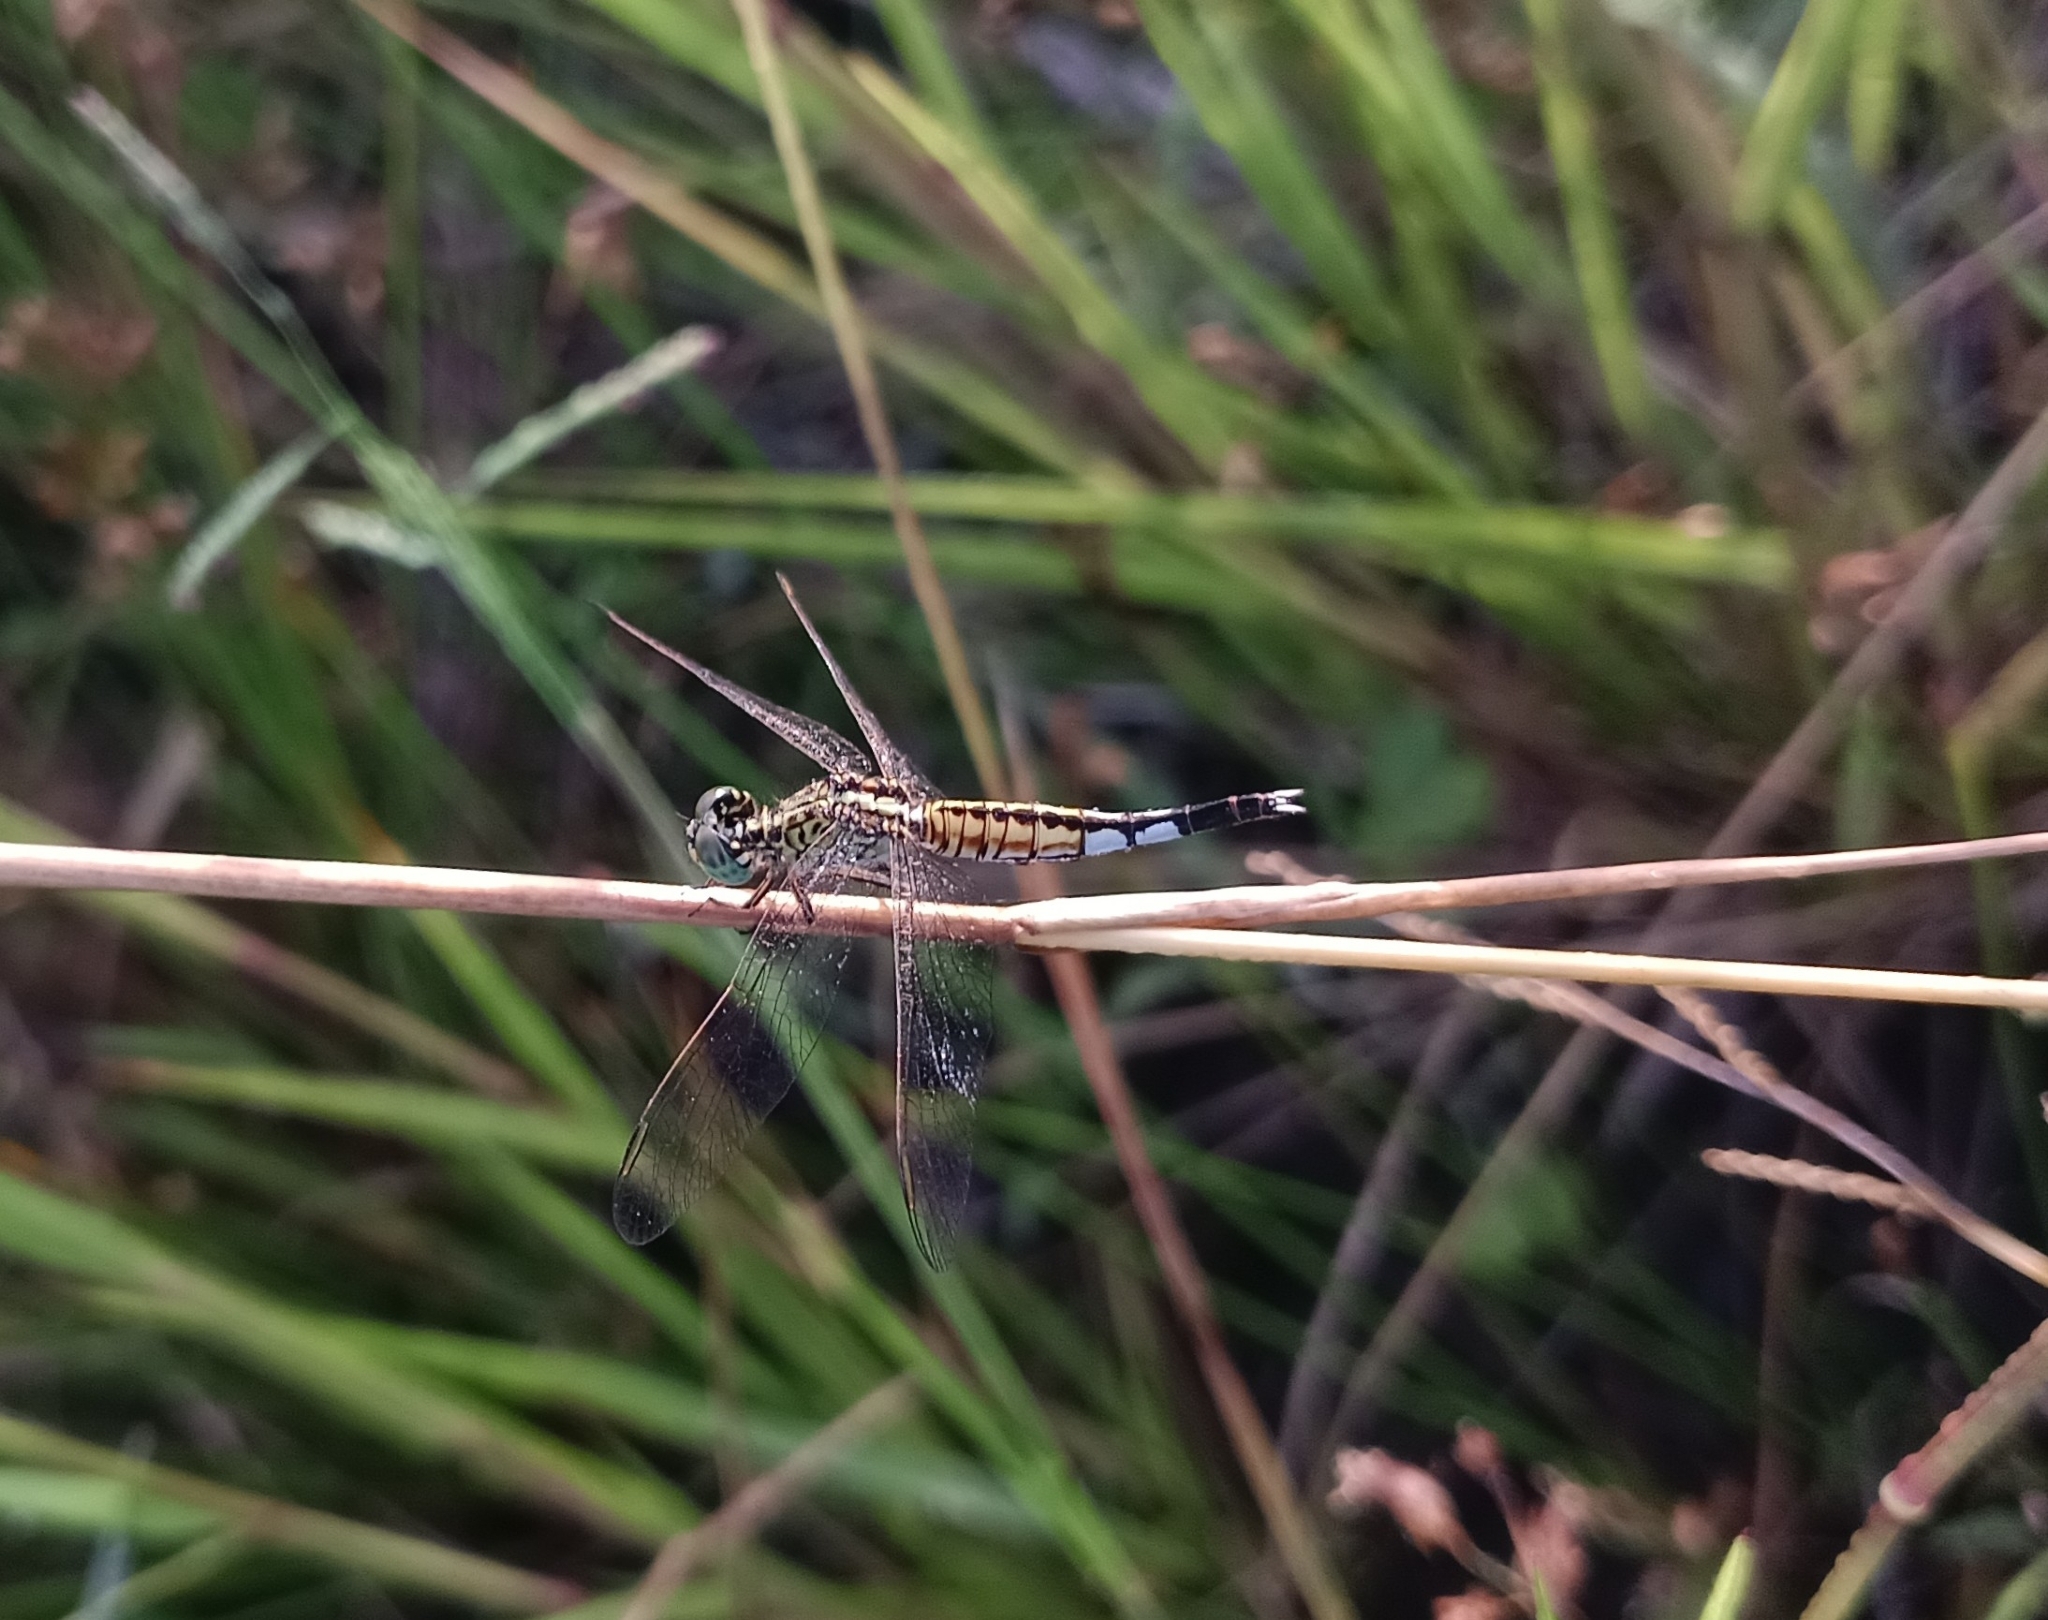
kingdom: Animalia
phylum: Arthropoda
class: Insecta
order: Odonata
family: Libellulidae
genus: Acisoma
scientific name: Acisoma panorpoides
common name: Asian pintail
